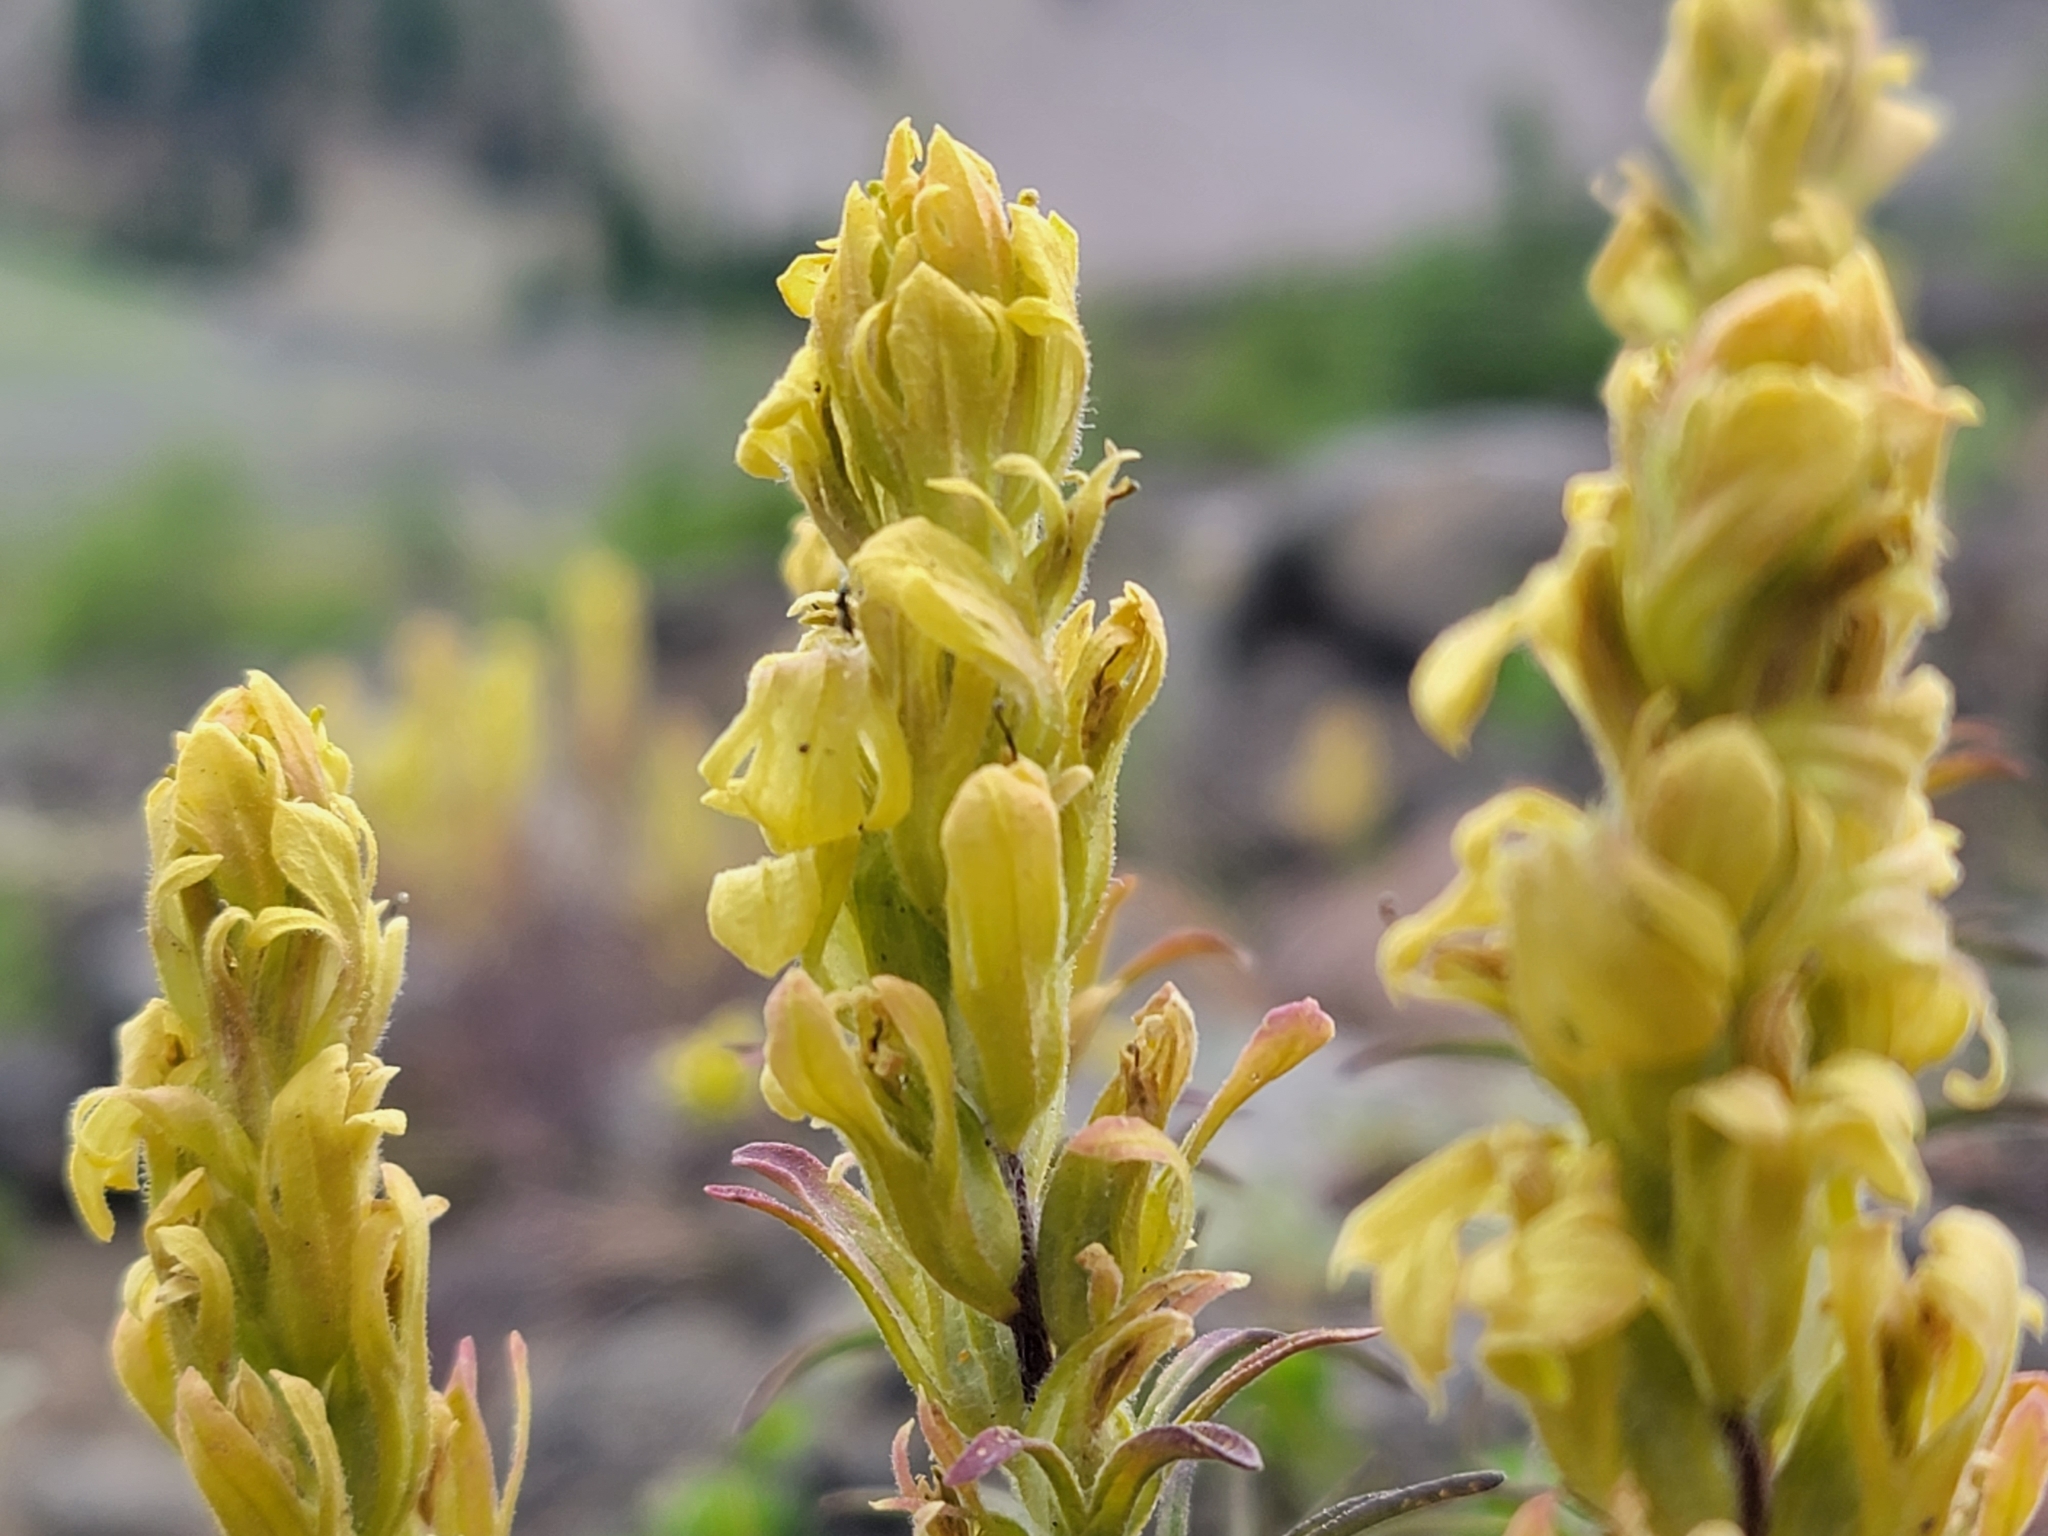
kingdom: Plantae
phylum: Tracheophyta
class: Magnoliopsida
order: Lamiales
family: Orobanchaceae
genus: Castilleja
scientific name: Castilleja arachnoidea
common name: Cobwebby indian paintbrush
